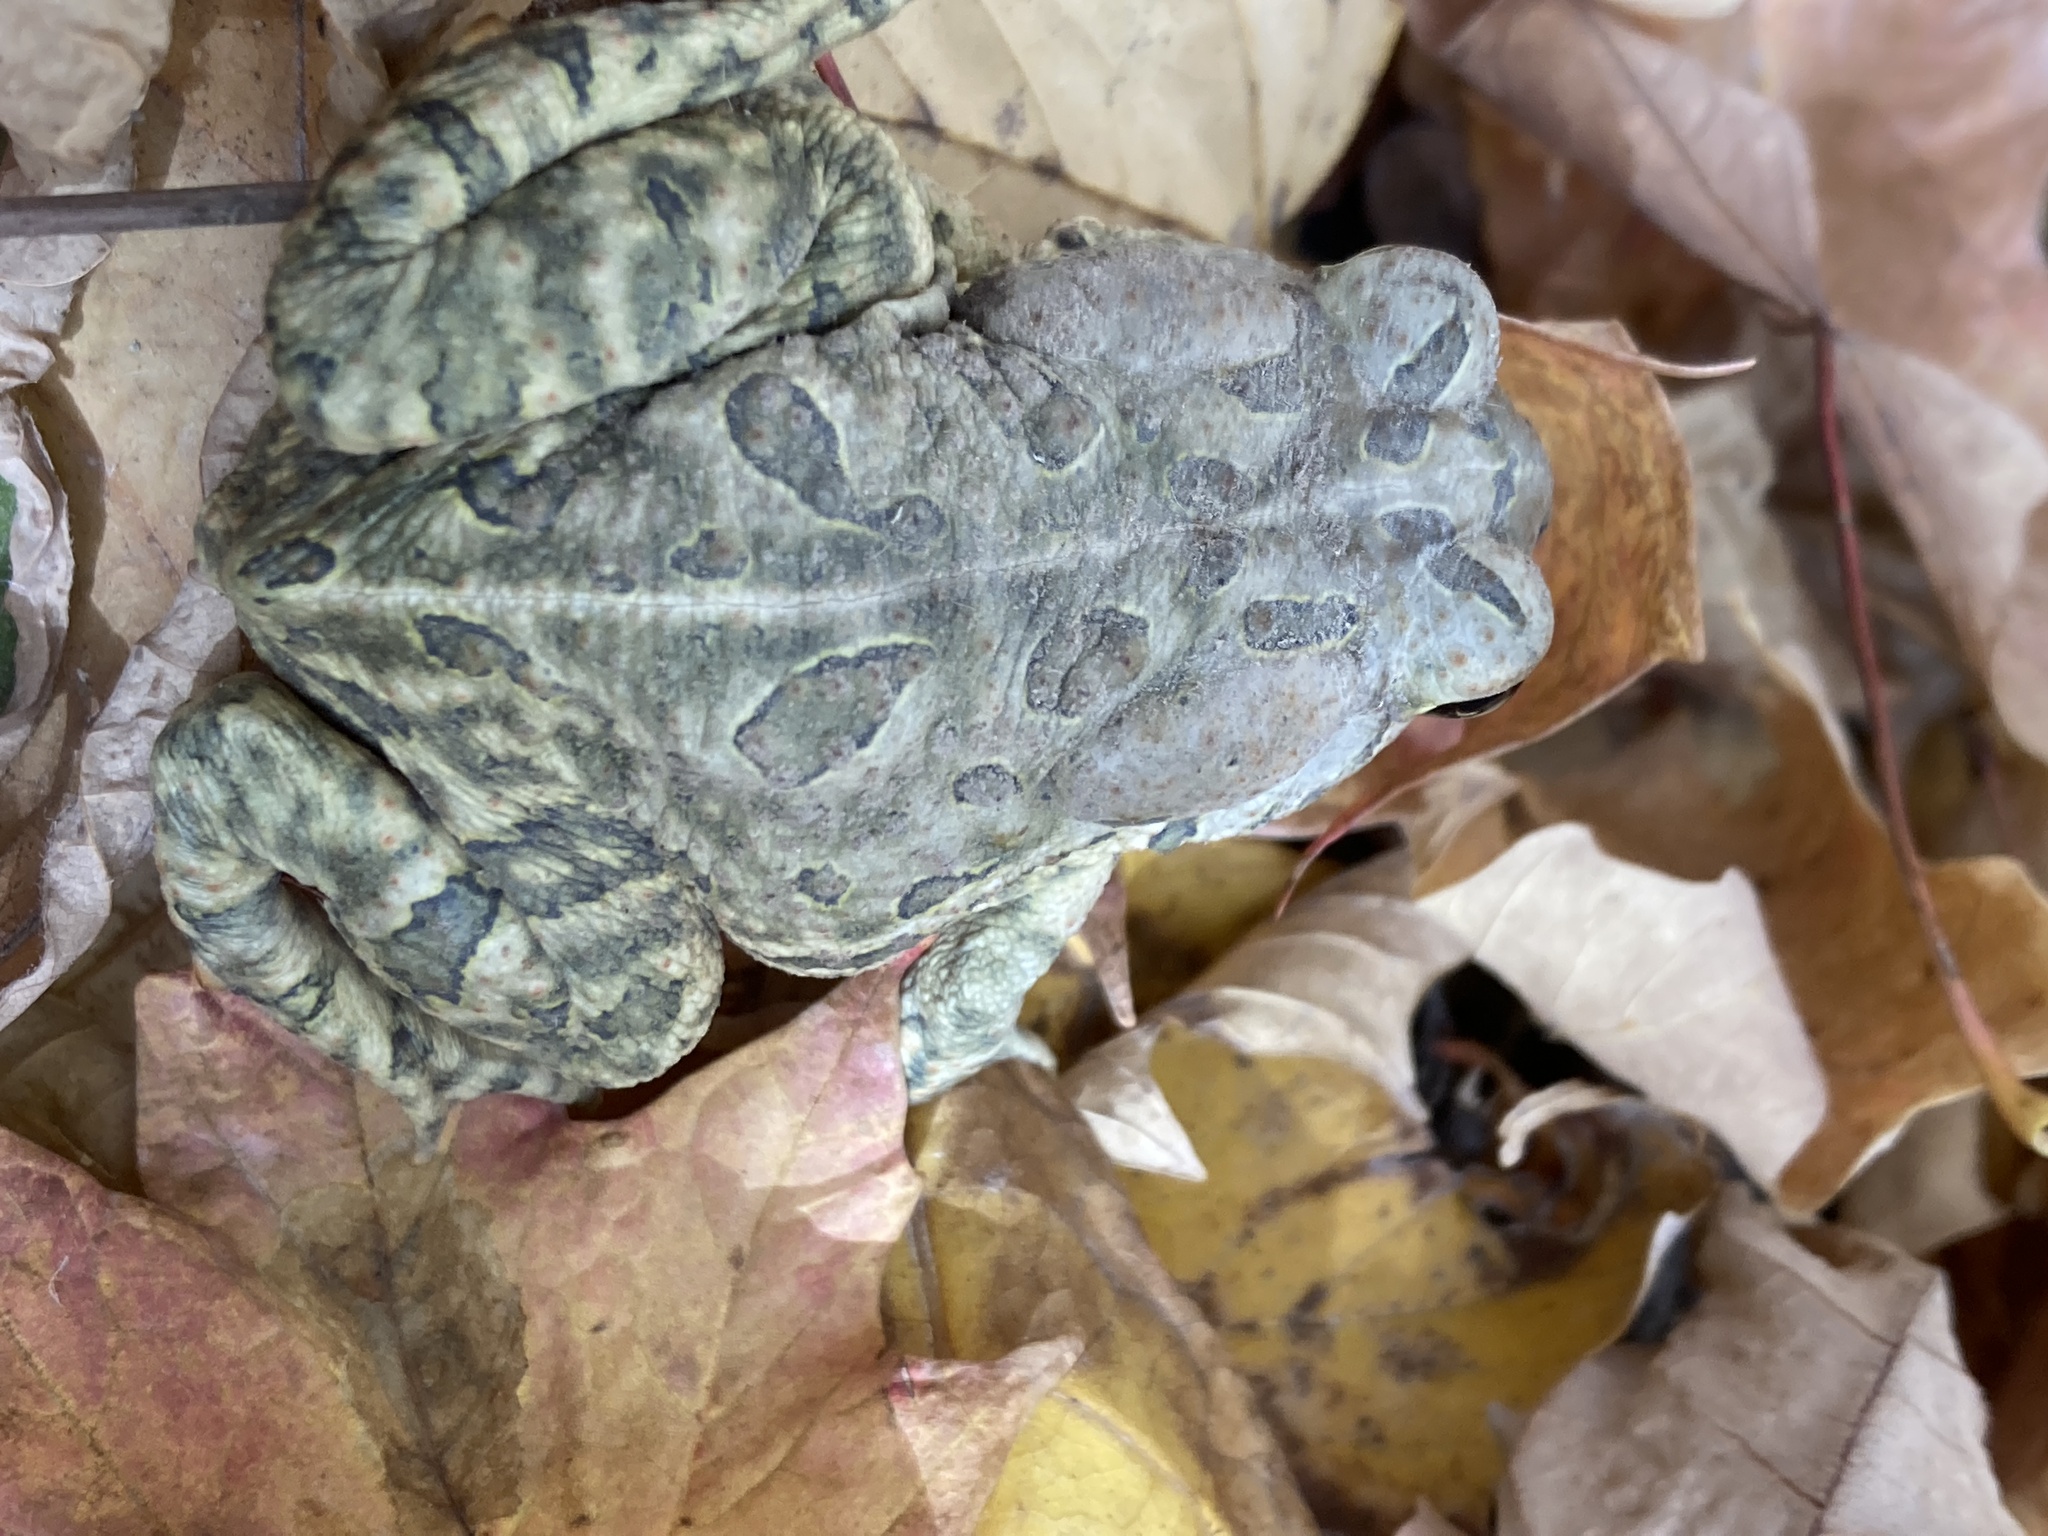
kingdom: Animalia
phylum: Chordata
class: Amphibia
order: Anura
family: Bufonidae
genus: Anaxyrus
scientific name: Anaxyrus fowleri
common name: Fowler's toad
